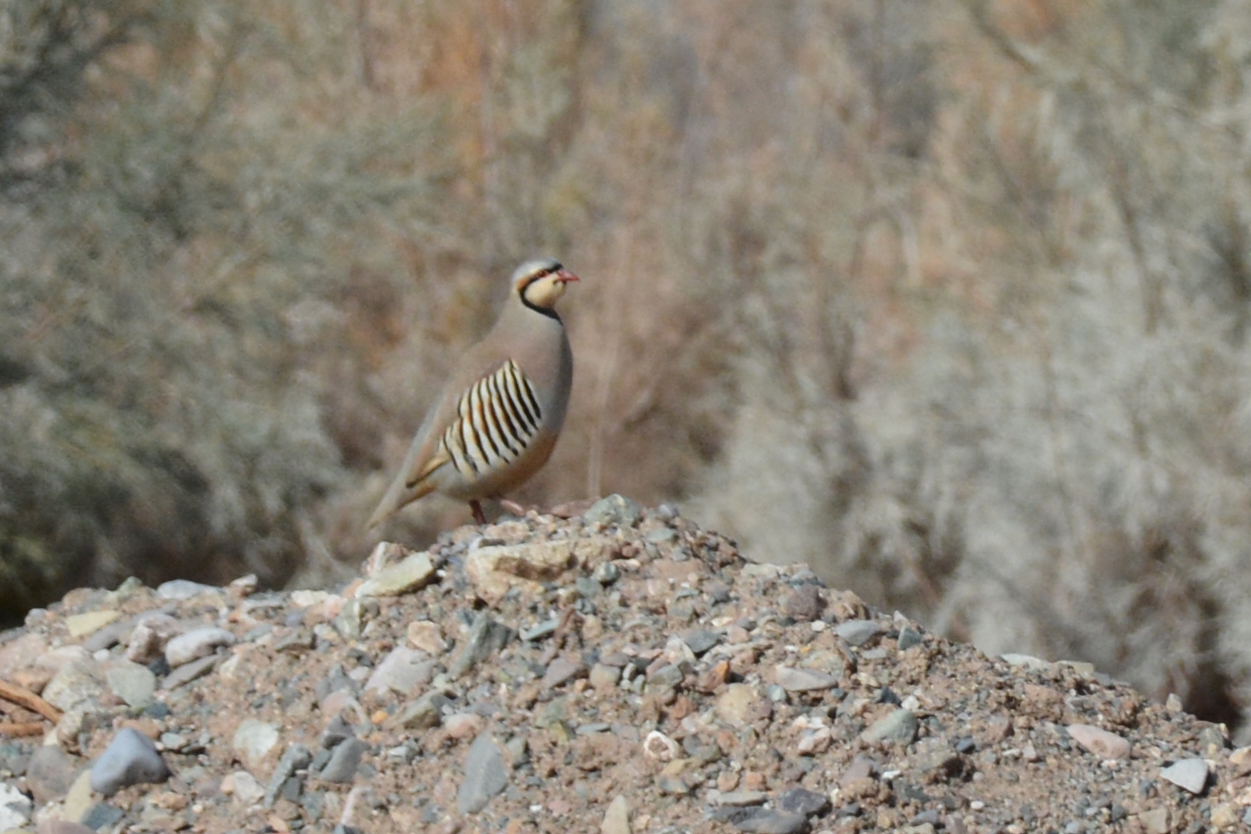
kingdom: Animalia
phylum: Chordata
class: Aves
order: Galliformes
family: Phasianidae
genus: Alectoris
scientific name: Alectoris chukar
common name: Chukar
